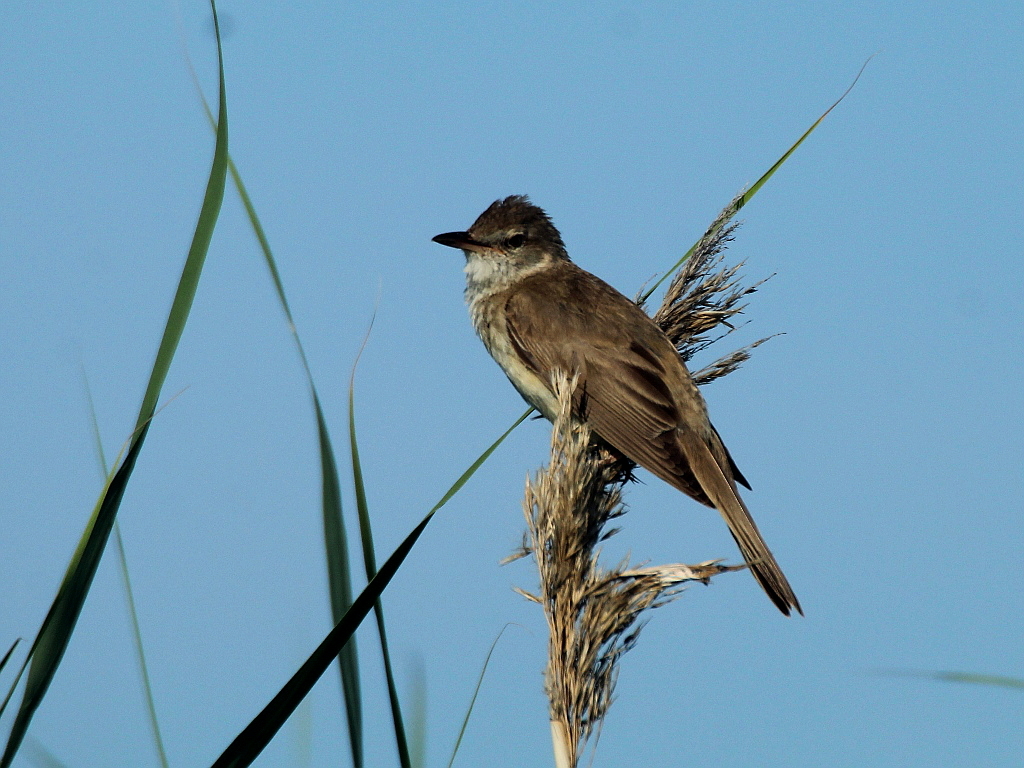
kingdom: Animalia
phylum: Chordata
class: Aves
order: Passeriformes
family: Acrocephalidae
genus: Acrocephalus
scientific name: Acrocephalus arundinaceus
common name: Great reed warbler
